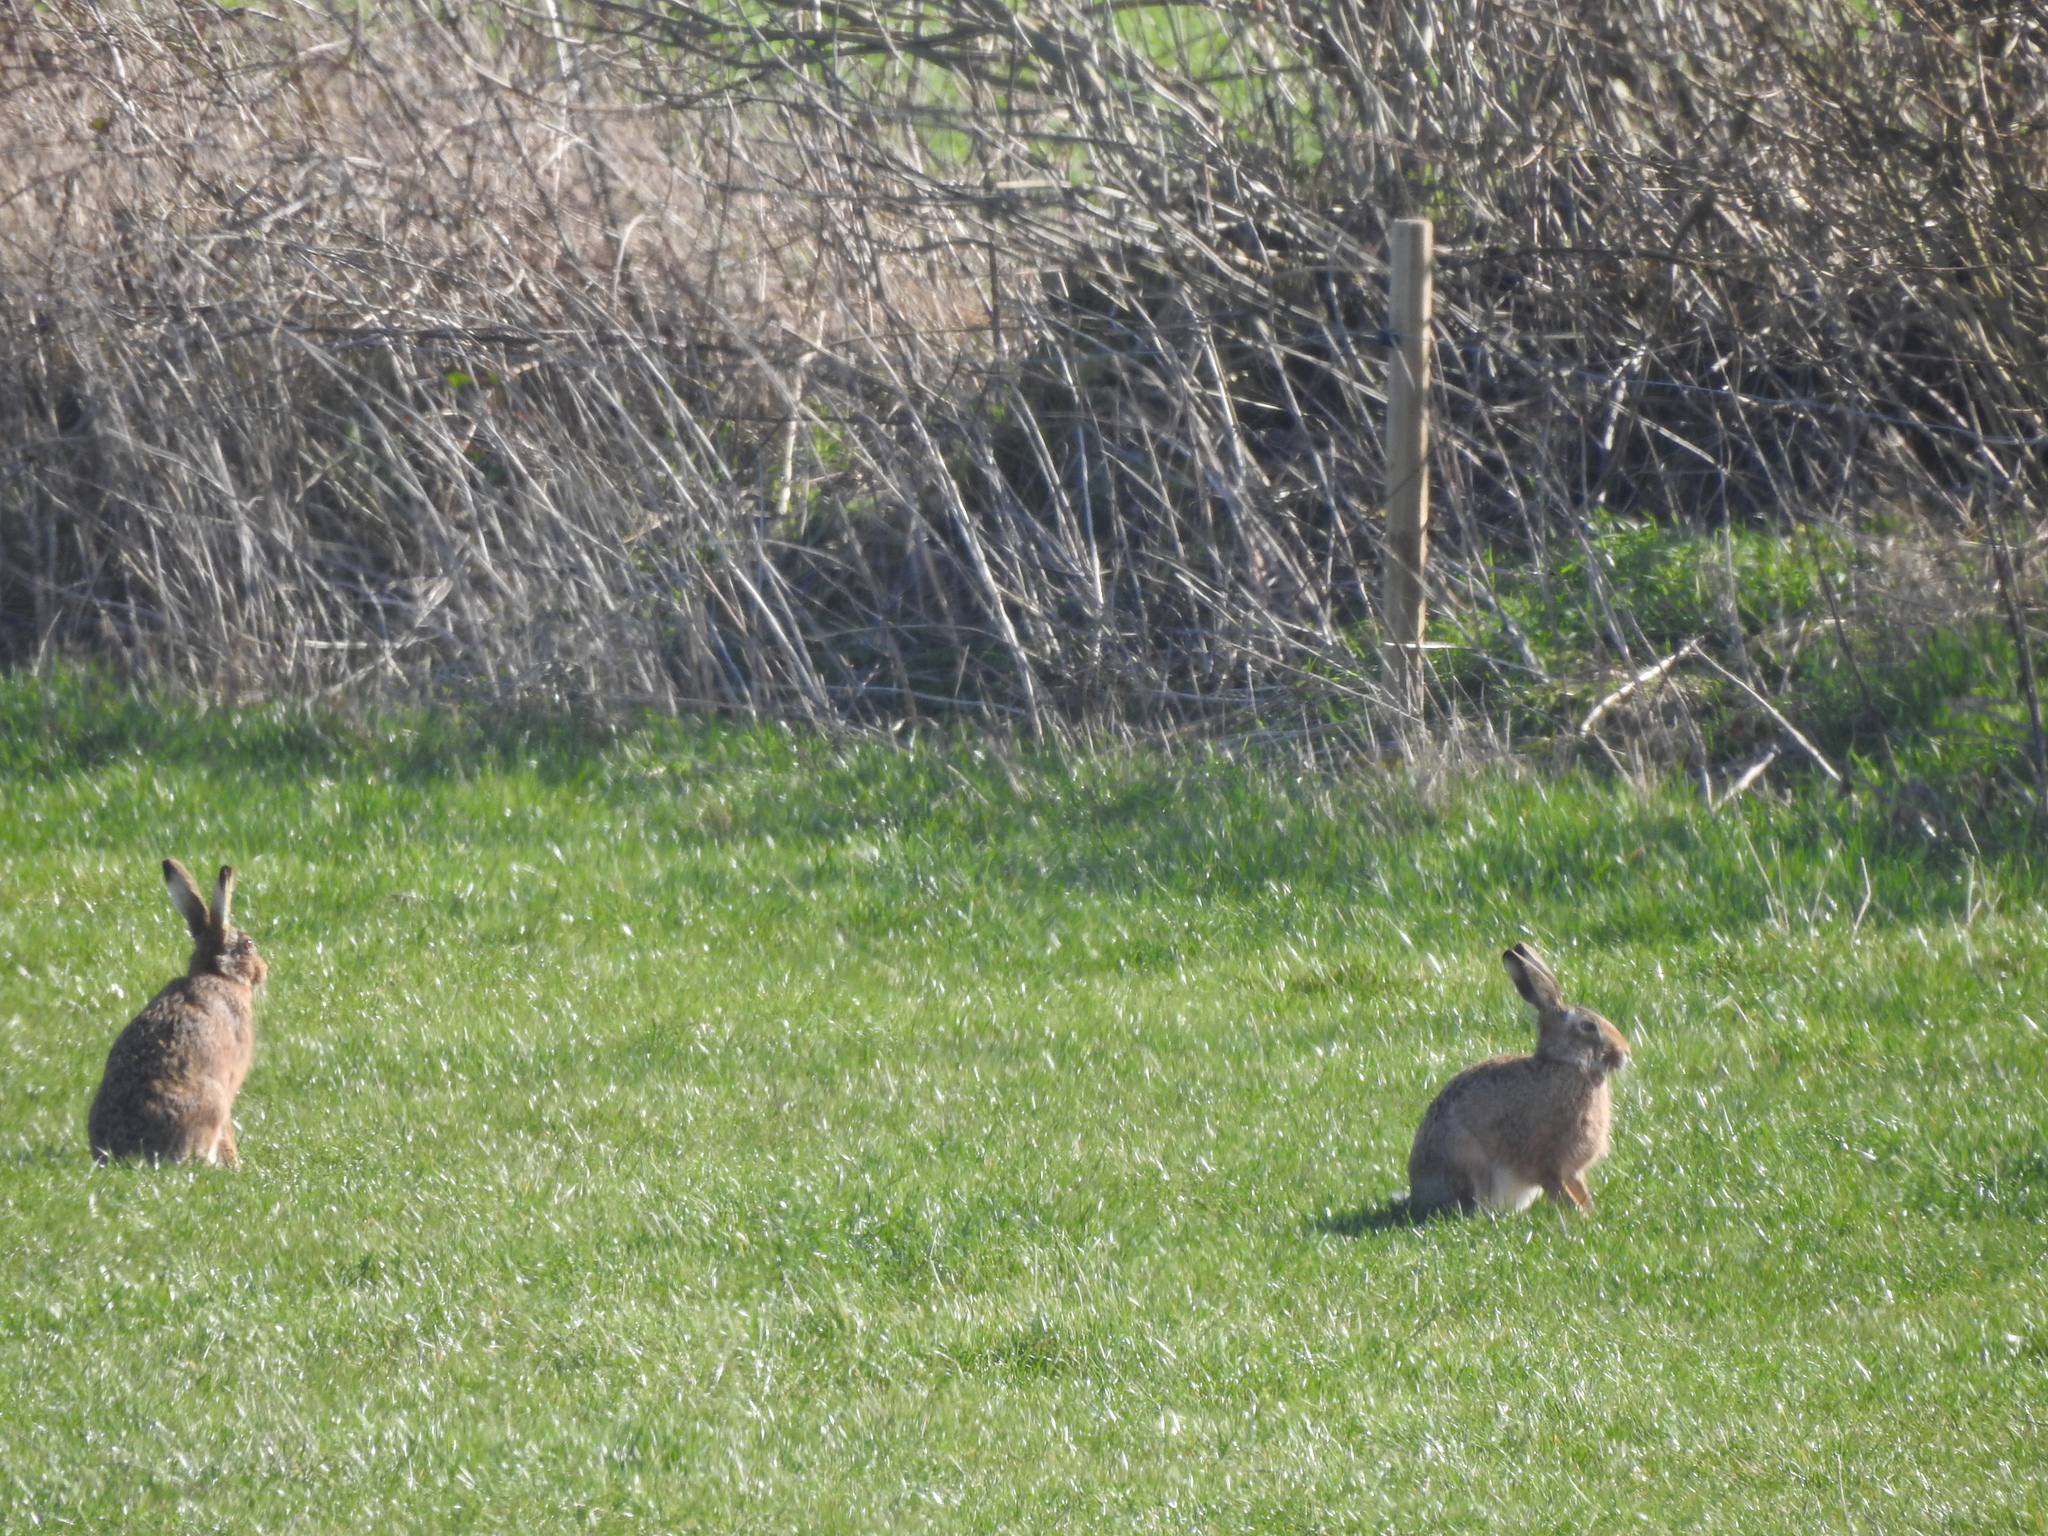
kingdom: Animalia
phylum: Chordata
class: Mammalia
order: Lagomorpha
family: Leporidae
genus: Lepus
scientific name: Lepus europaeus
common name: European hare
